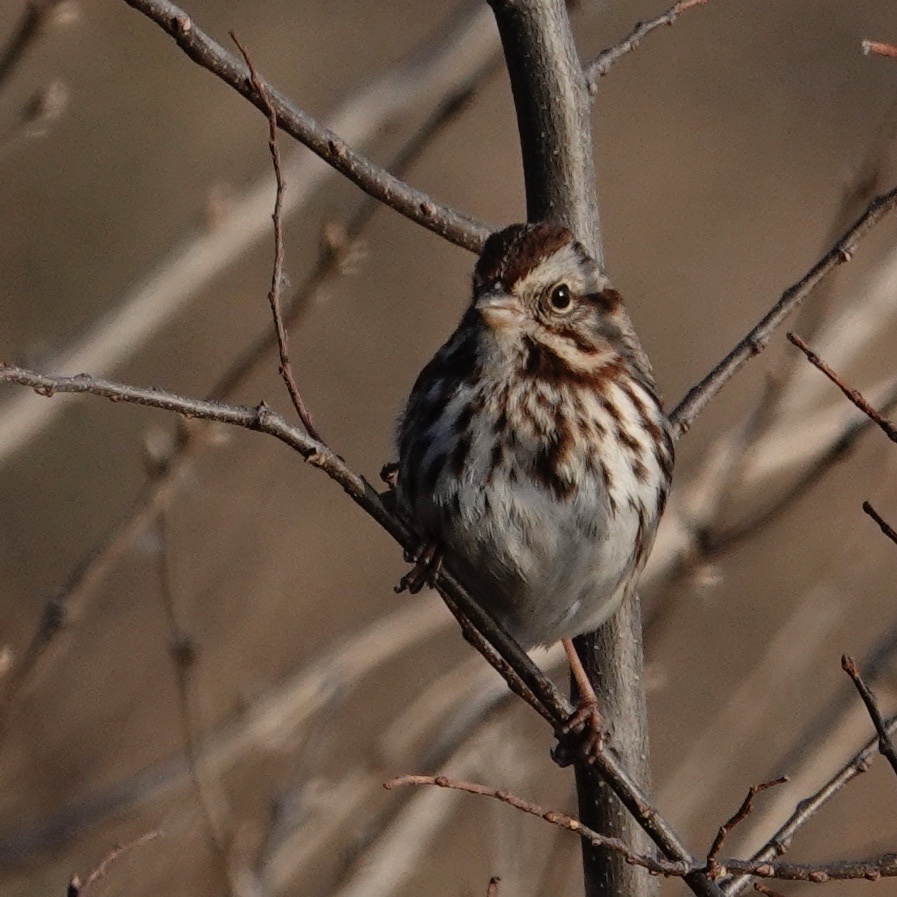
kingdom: Animalia
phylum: Chordata
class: Aves
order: Passeriformes
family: Passerellidae
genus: Melospiza
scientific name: Melospiza melodia
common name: Song sparrow
